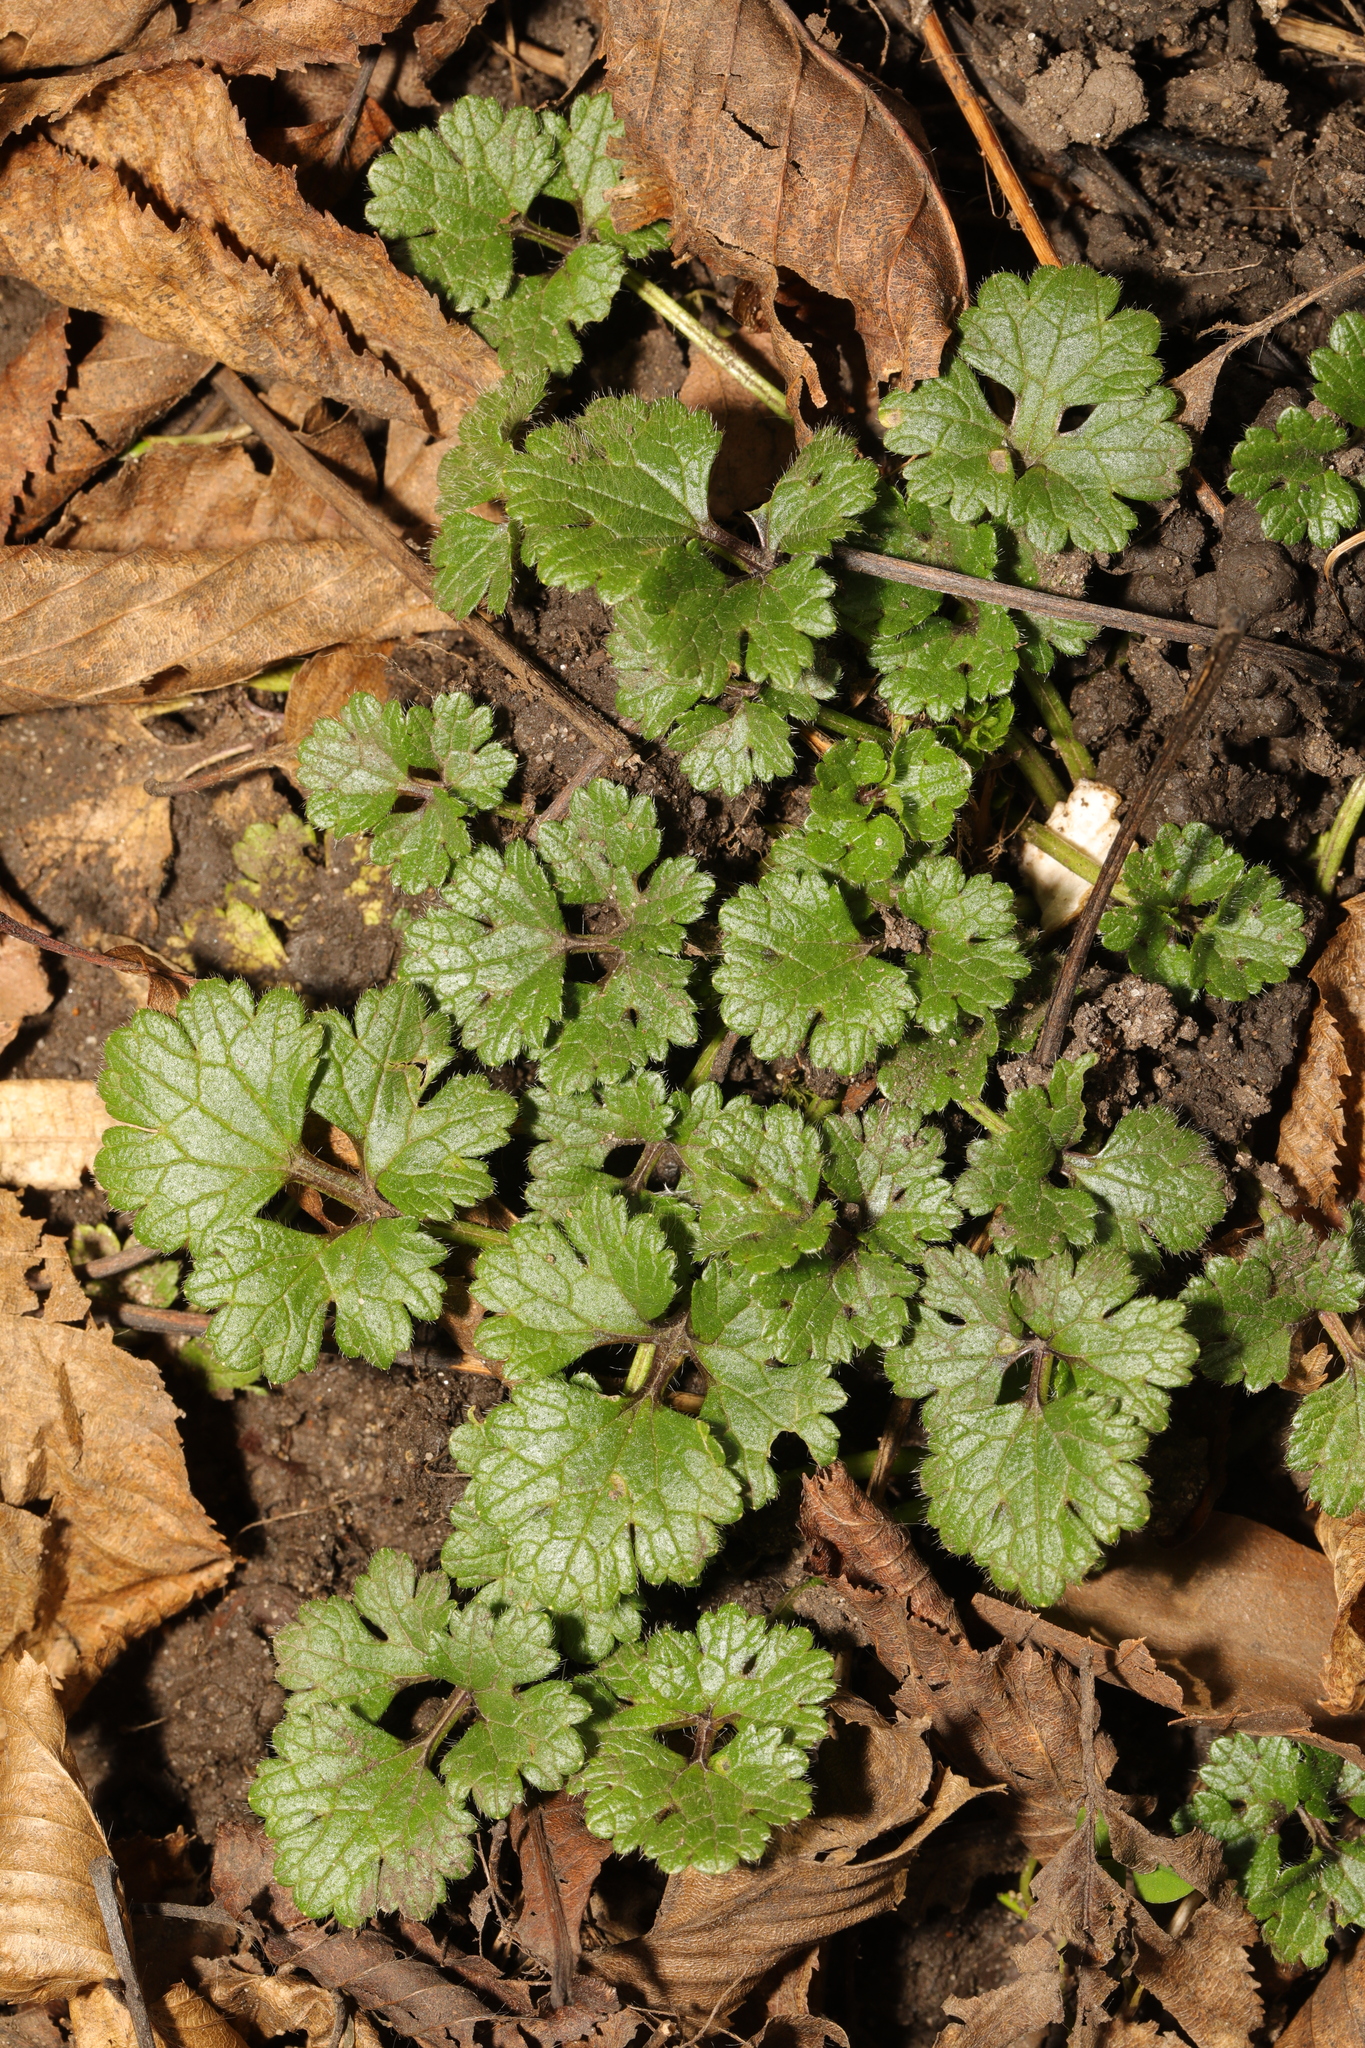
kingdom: Plantae
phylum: Tracheophyta
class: Magnoliopsida
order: Ranunculales
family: Ranunculaceae
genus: Ranunculus
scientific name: Ranunculus bulbosus
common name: Bulbous buttercup
